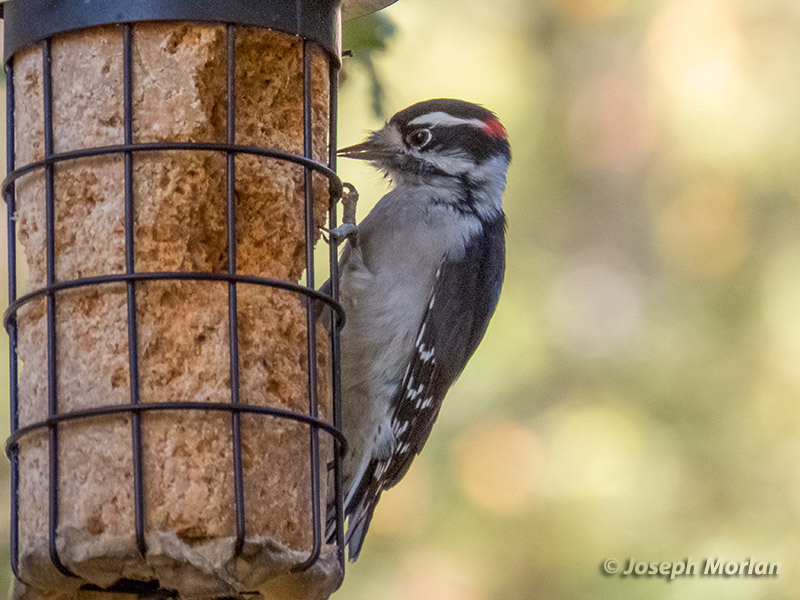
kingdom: Animalia
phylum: Chordata
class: Aves
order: Piciformes
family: Picidae
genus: Dryobates
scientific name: Dryobates pubescens
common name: Downy woodpecker
